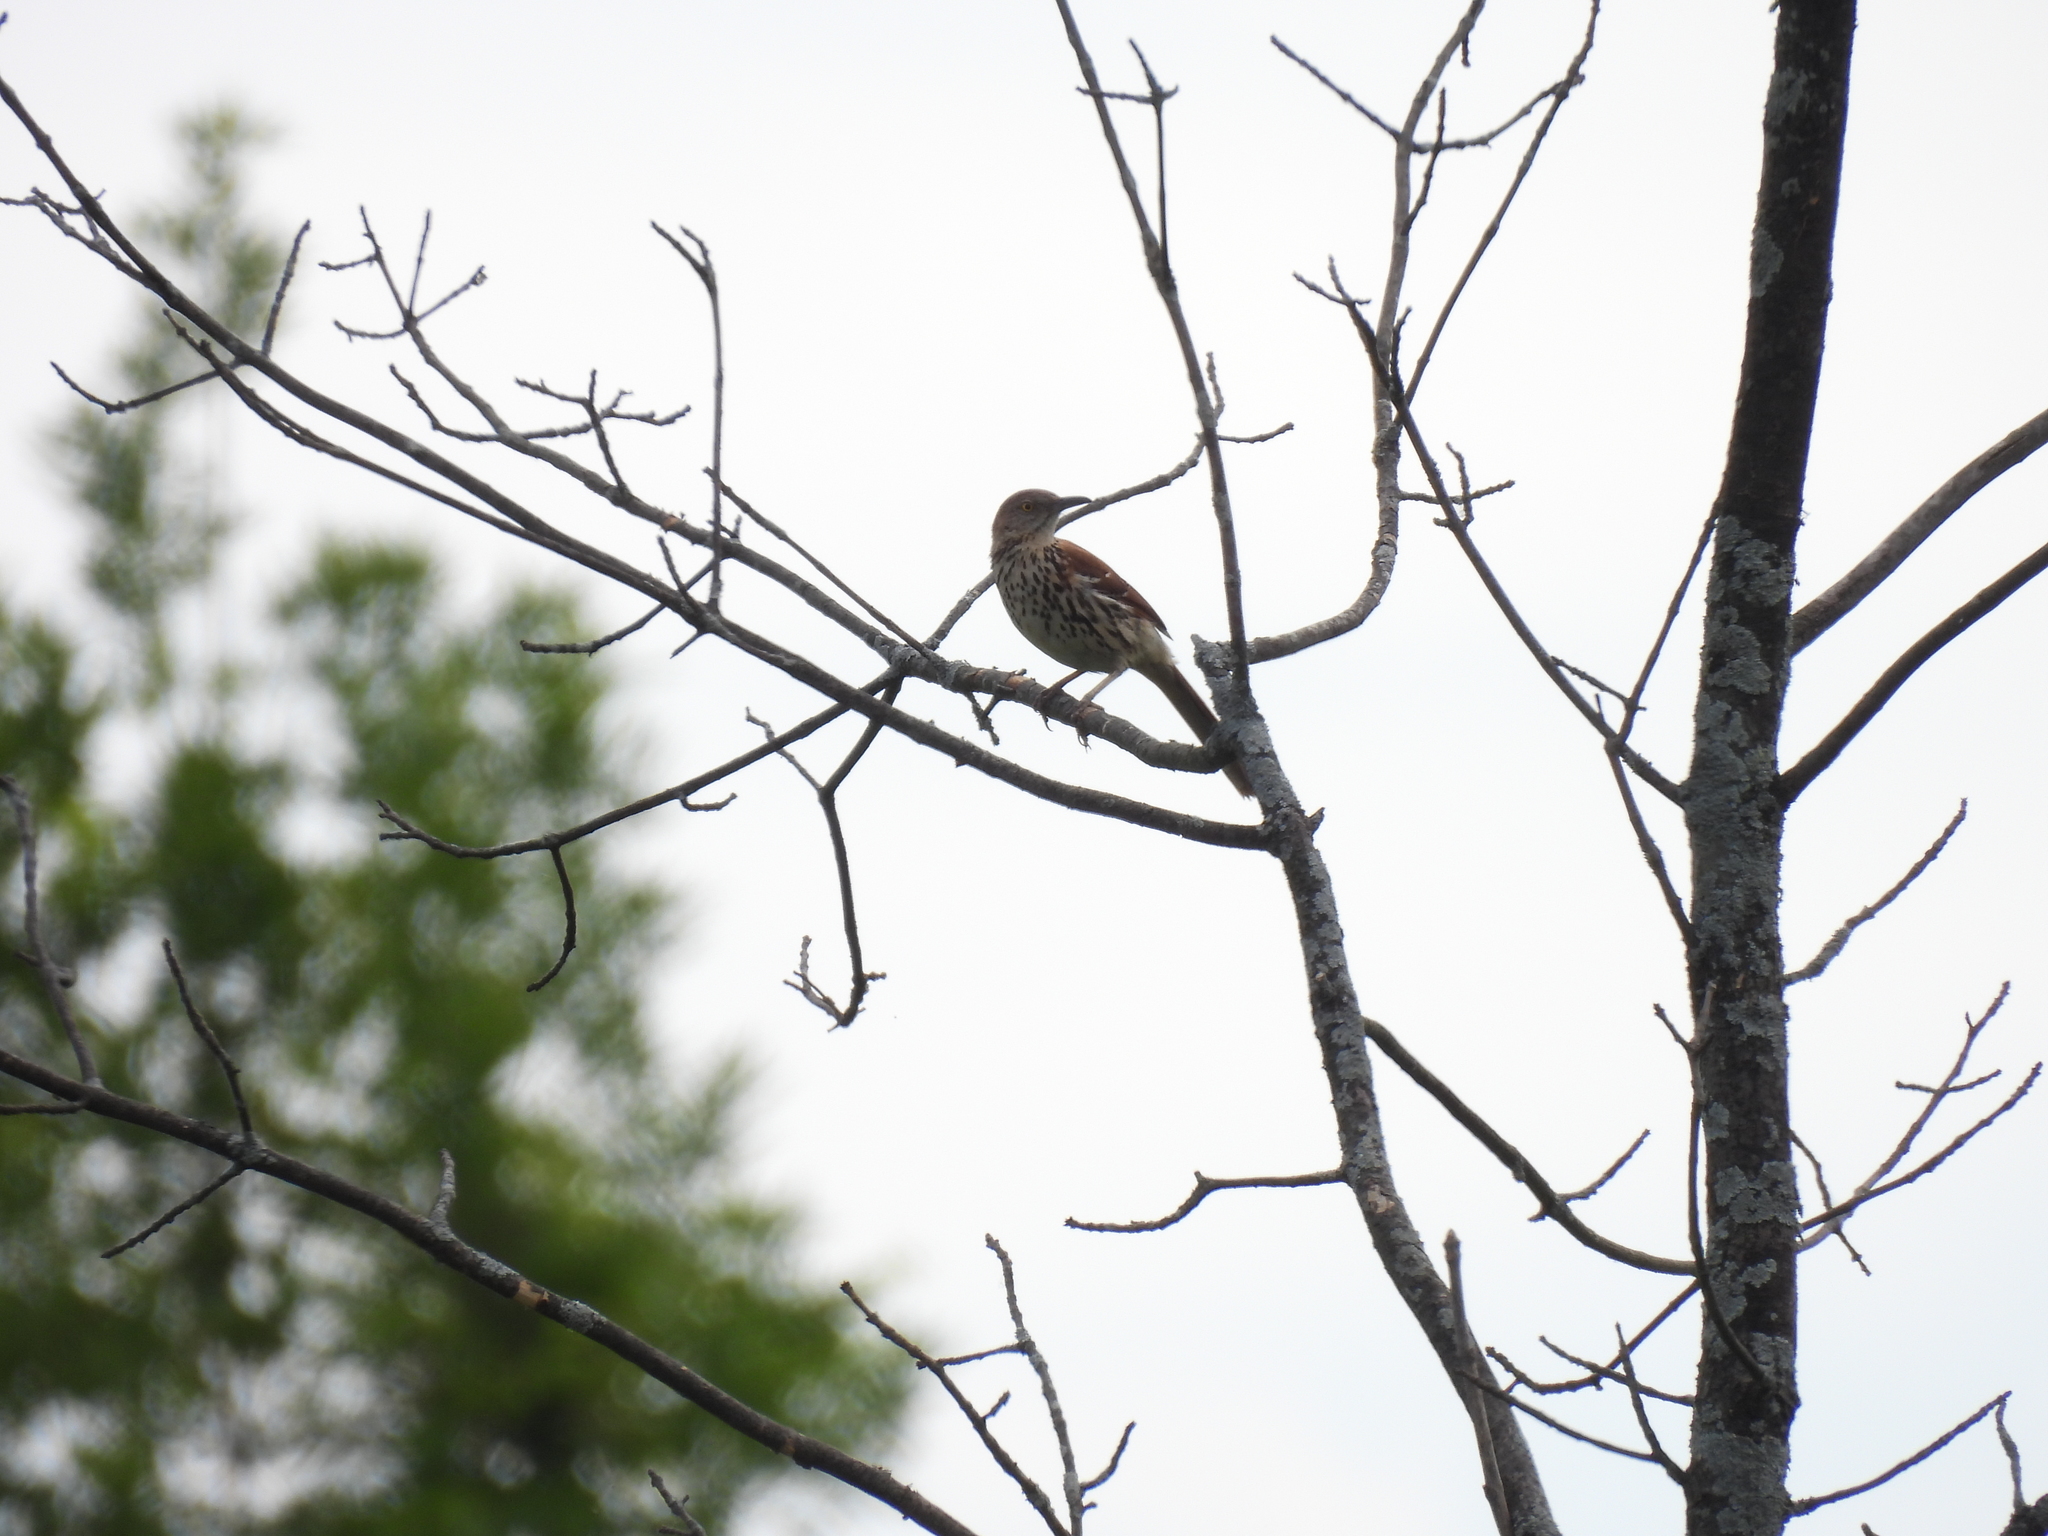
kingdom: Animalia
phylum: Chordata
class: Aves
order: Passeriformes
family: Mimidae
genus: Toxostoma
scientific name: Toxostoma rufum
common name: Brown thrasher
